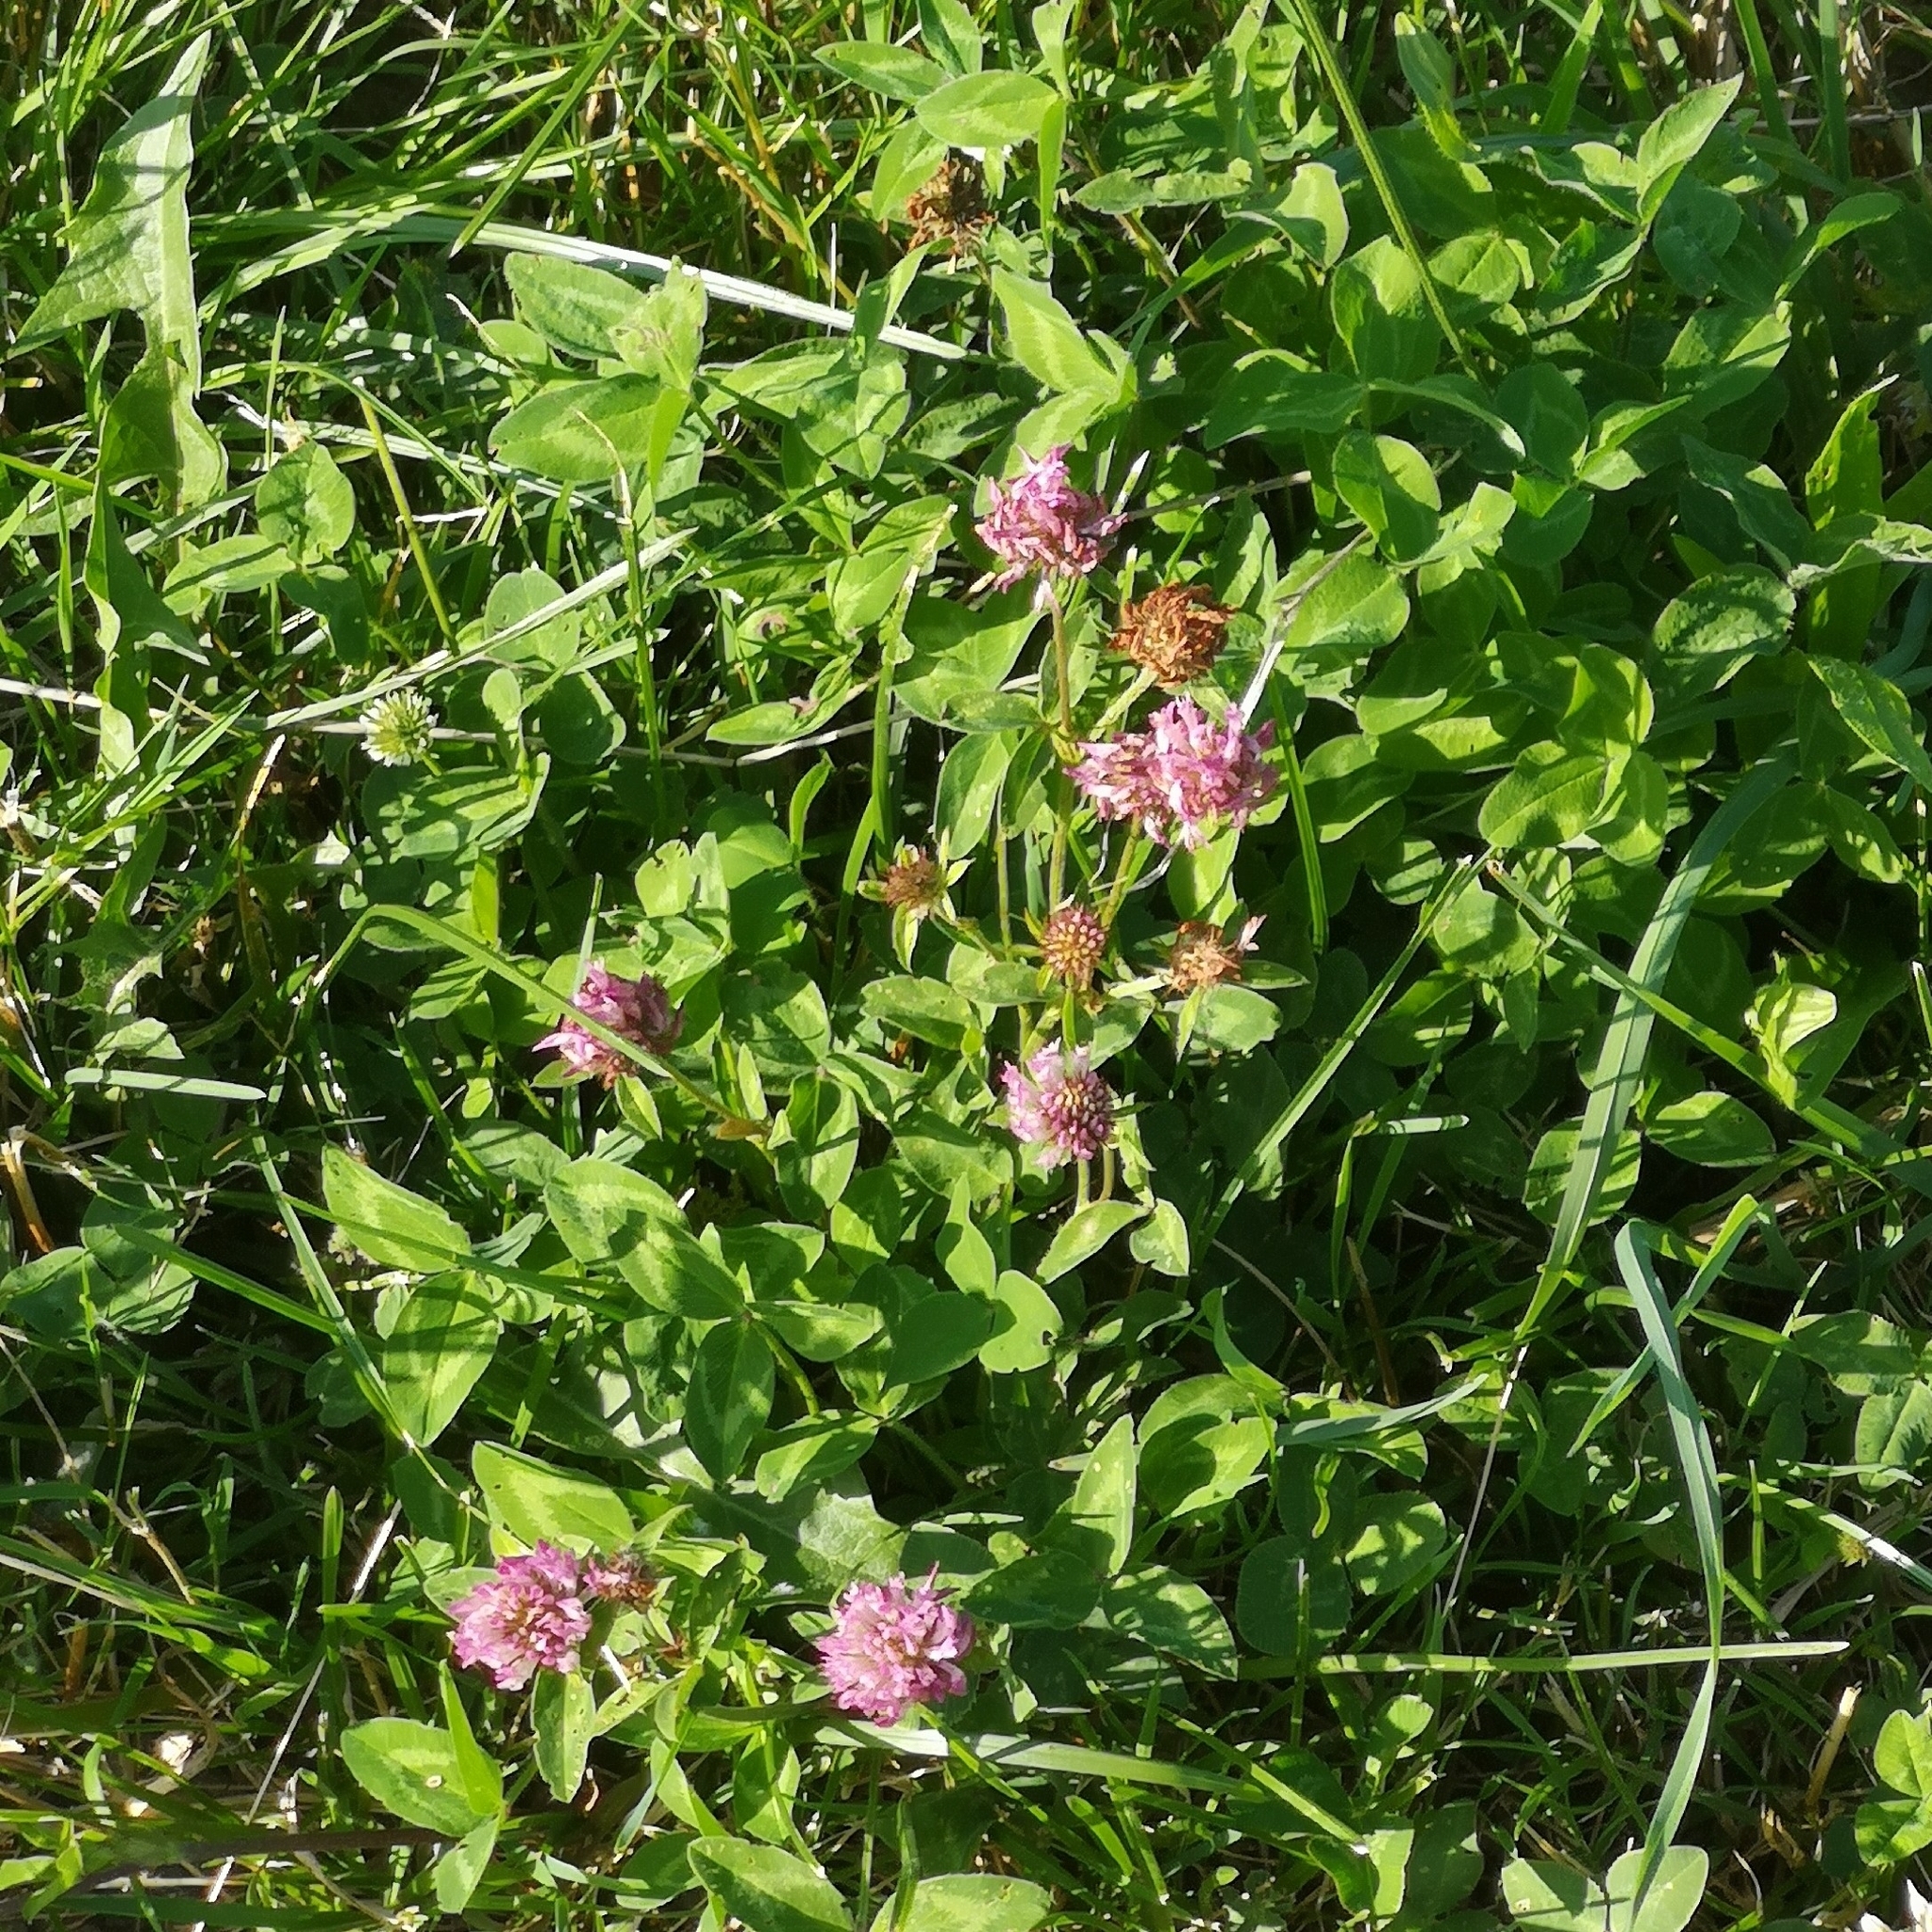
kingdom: Plantae
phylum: Tracheophyta
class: Magnoliopsida
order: Fabales
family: Fabaceae
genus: Trifolium
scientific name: Trifolium pratense
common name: Red clover
